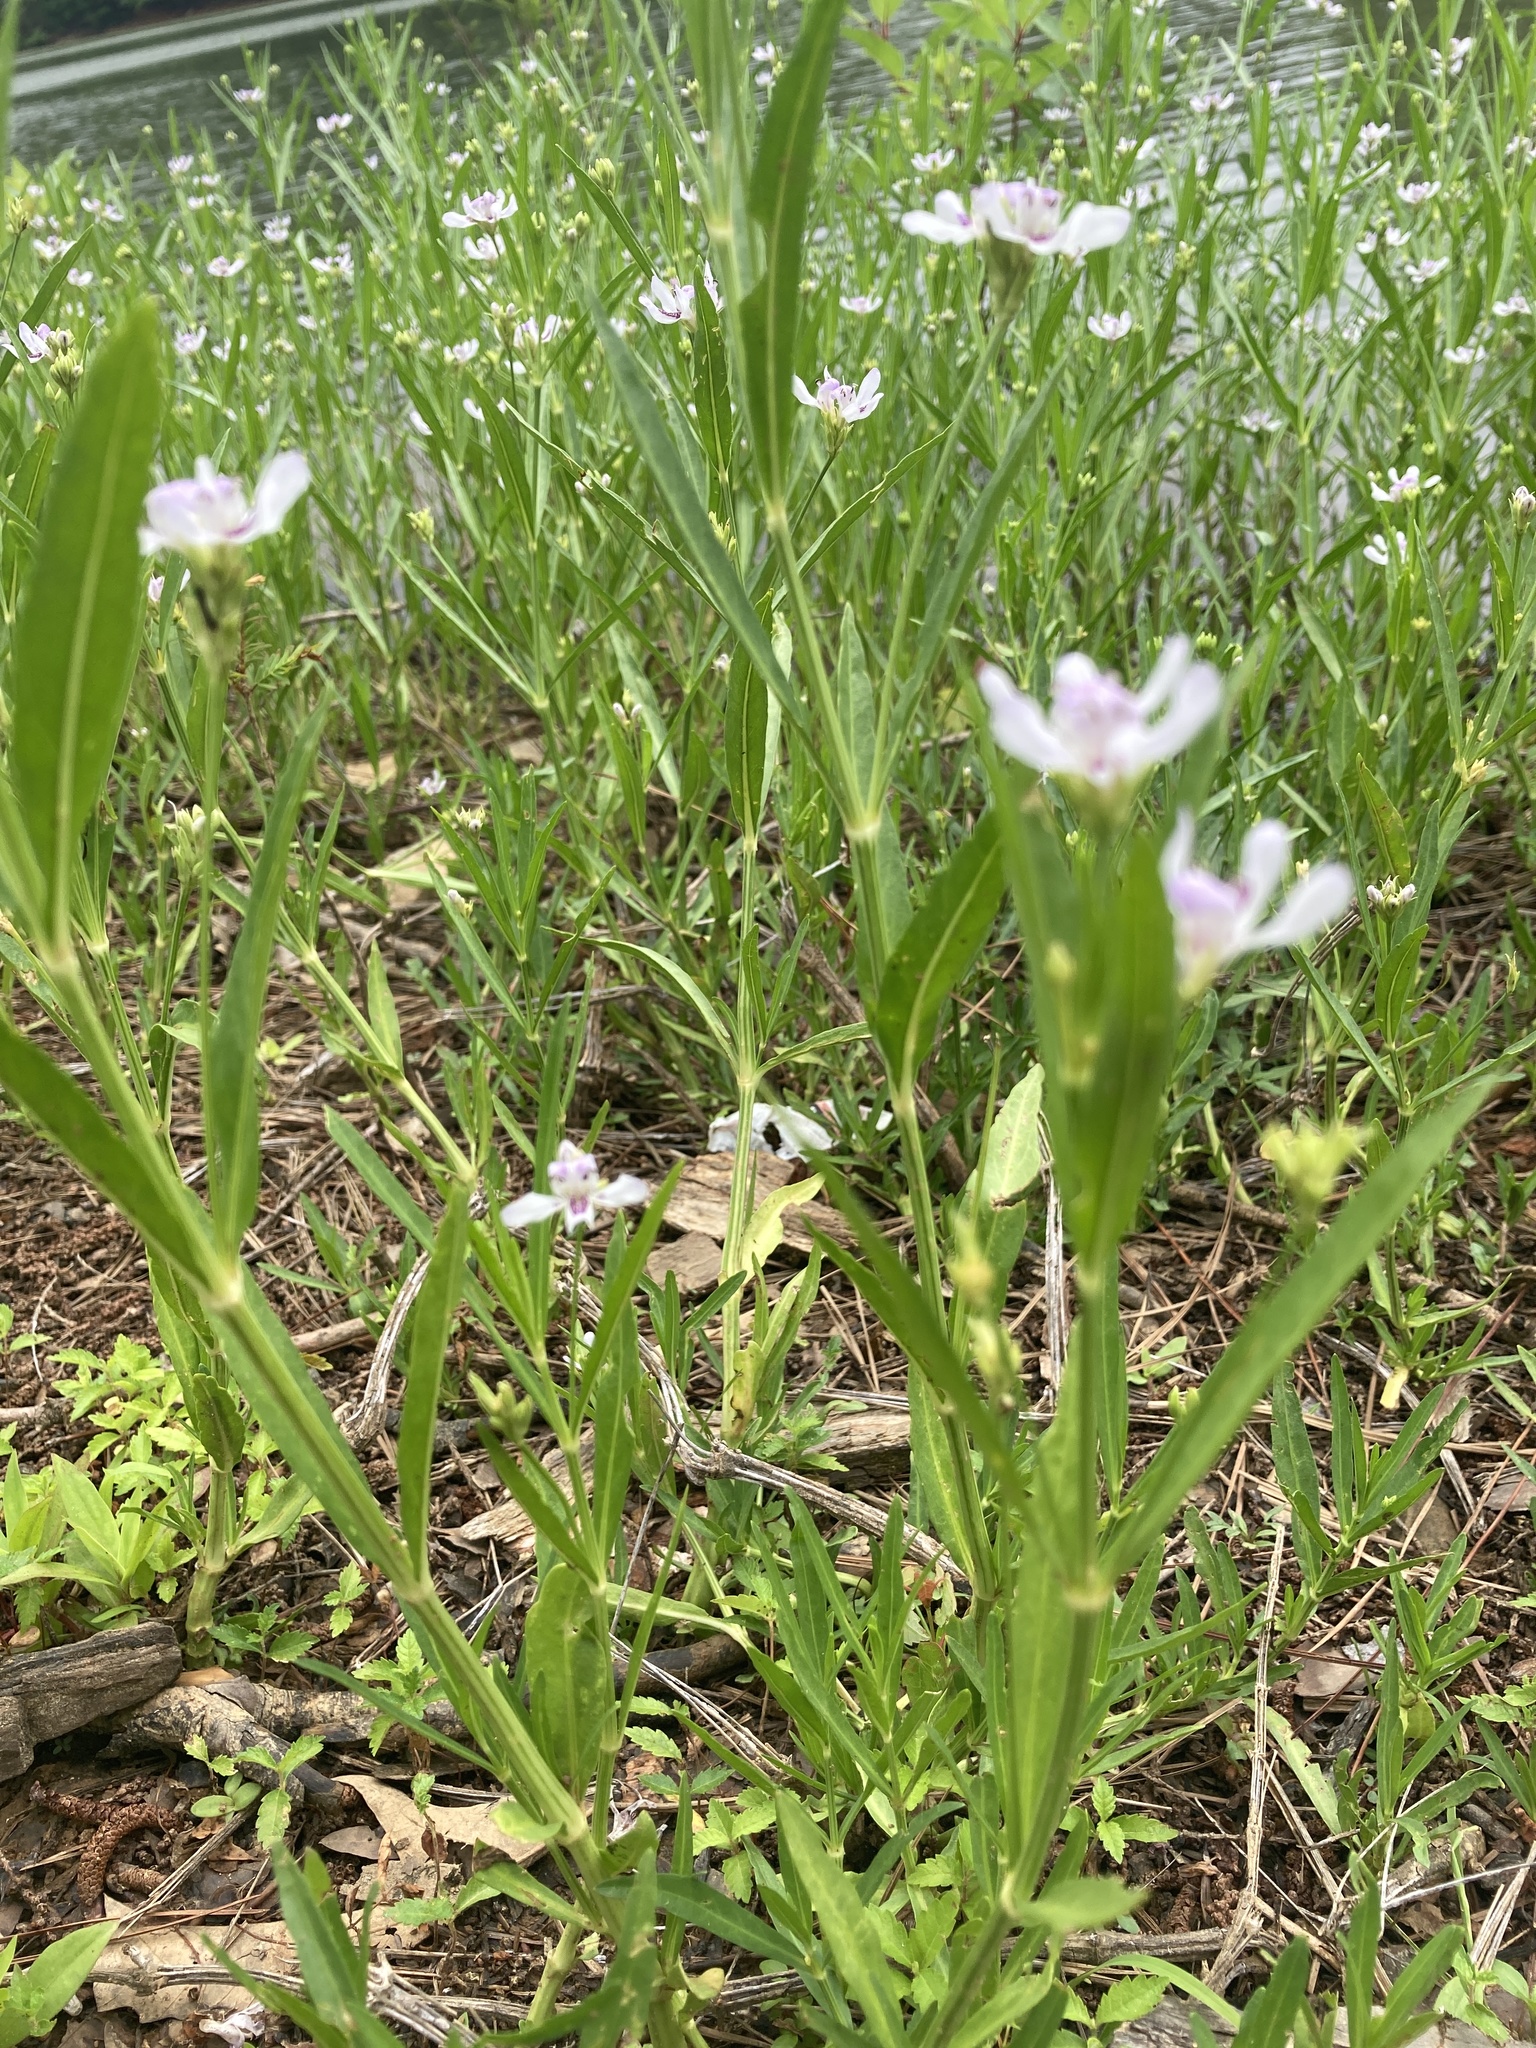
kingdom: Plantae
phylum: Tracheophyta
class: Magnoliopsida
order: Lamiales
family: Acanthaceae
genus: Dianthera
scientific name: Dianthera americana
